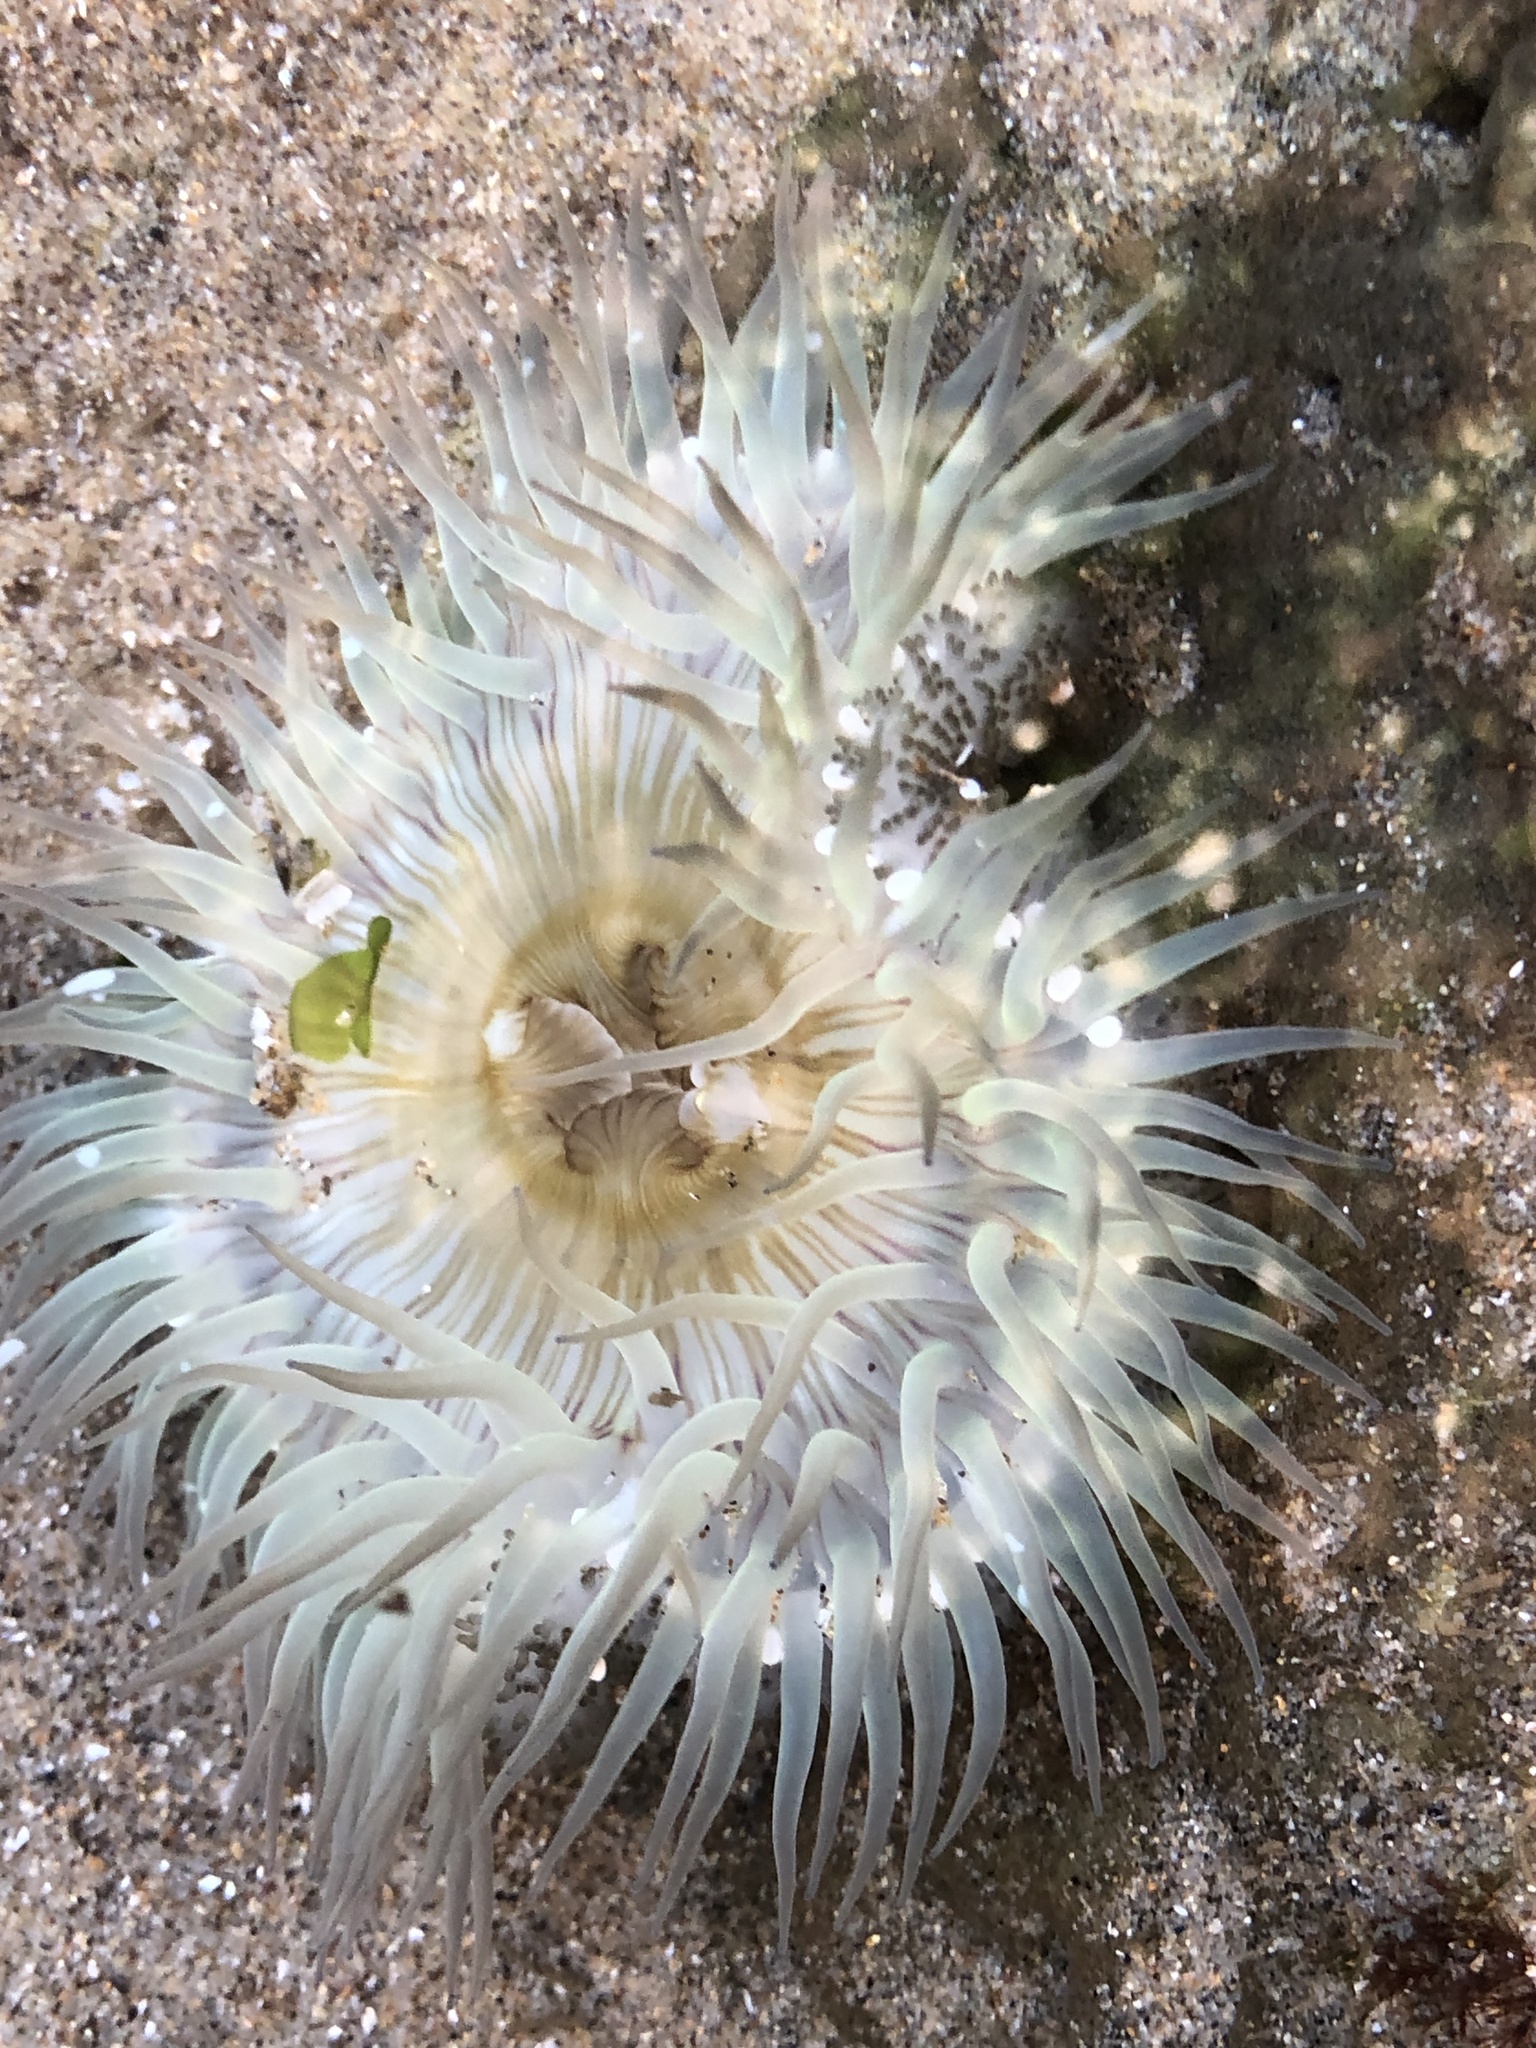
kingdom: Animalia
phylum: Cnidaria
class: Anthozoa
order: Actiniaria
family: Actiniidae
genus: Anthopleura
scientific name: Anthopleura sola
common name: Sun anemone
